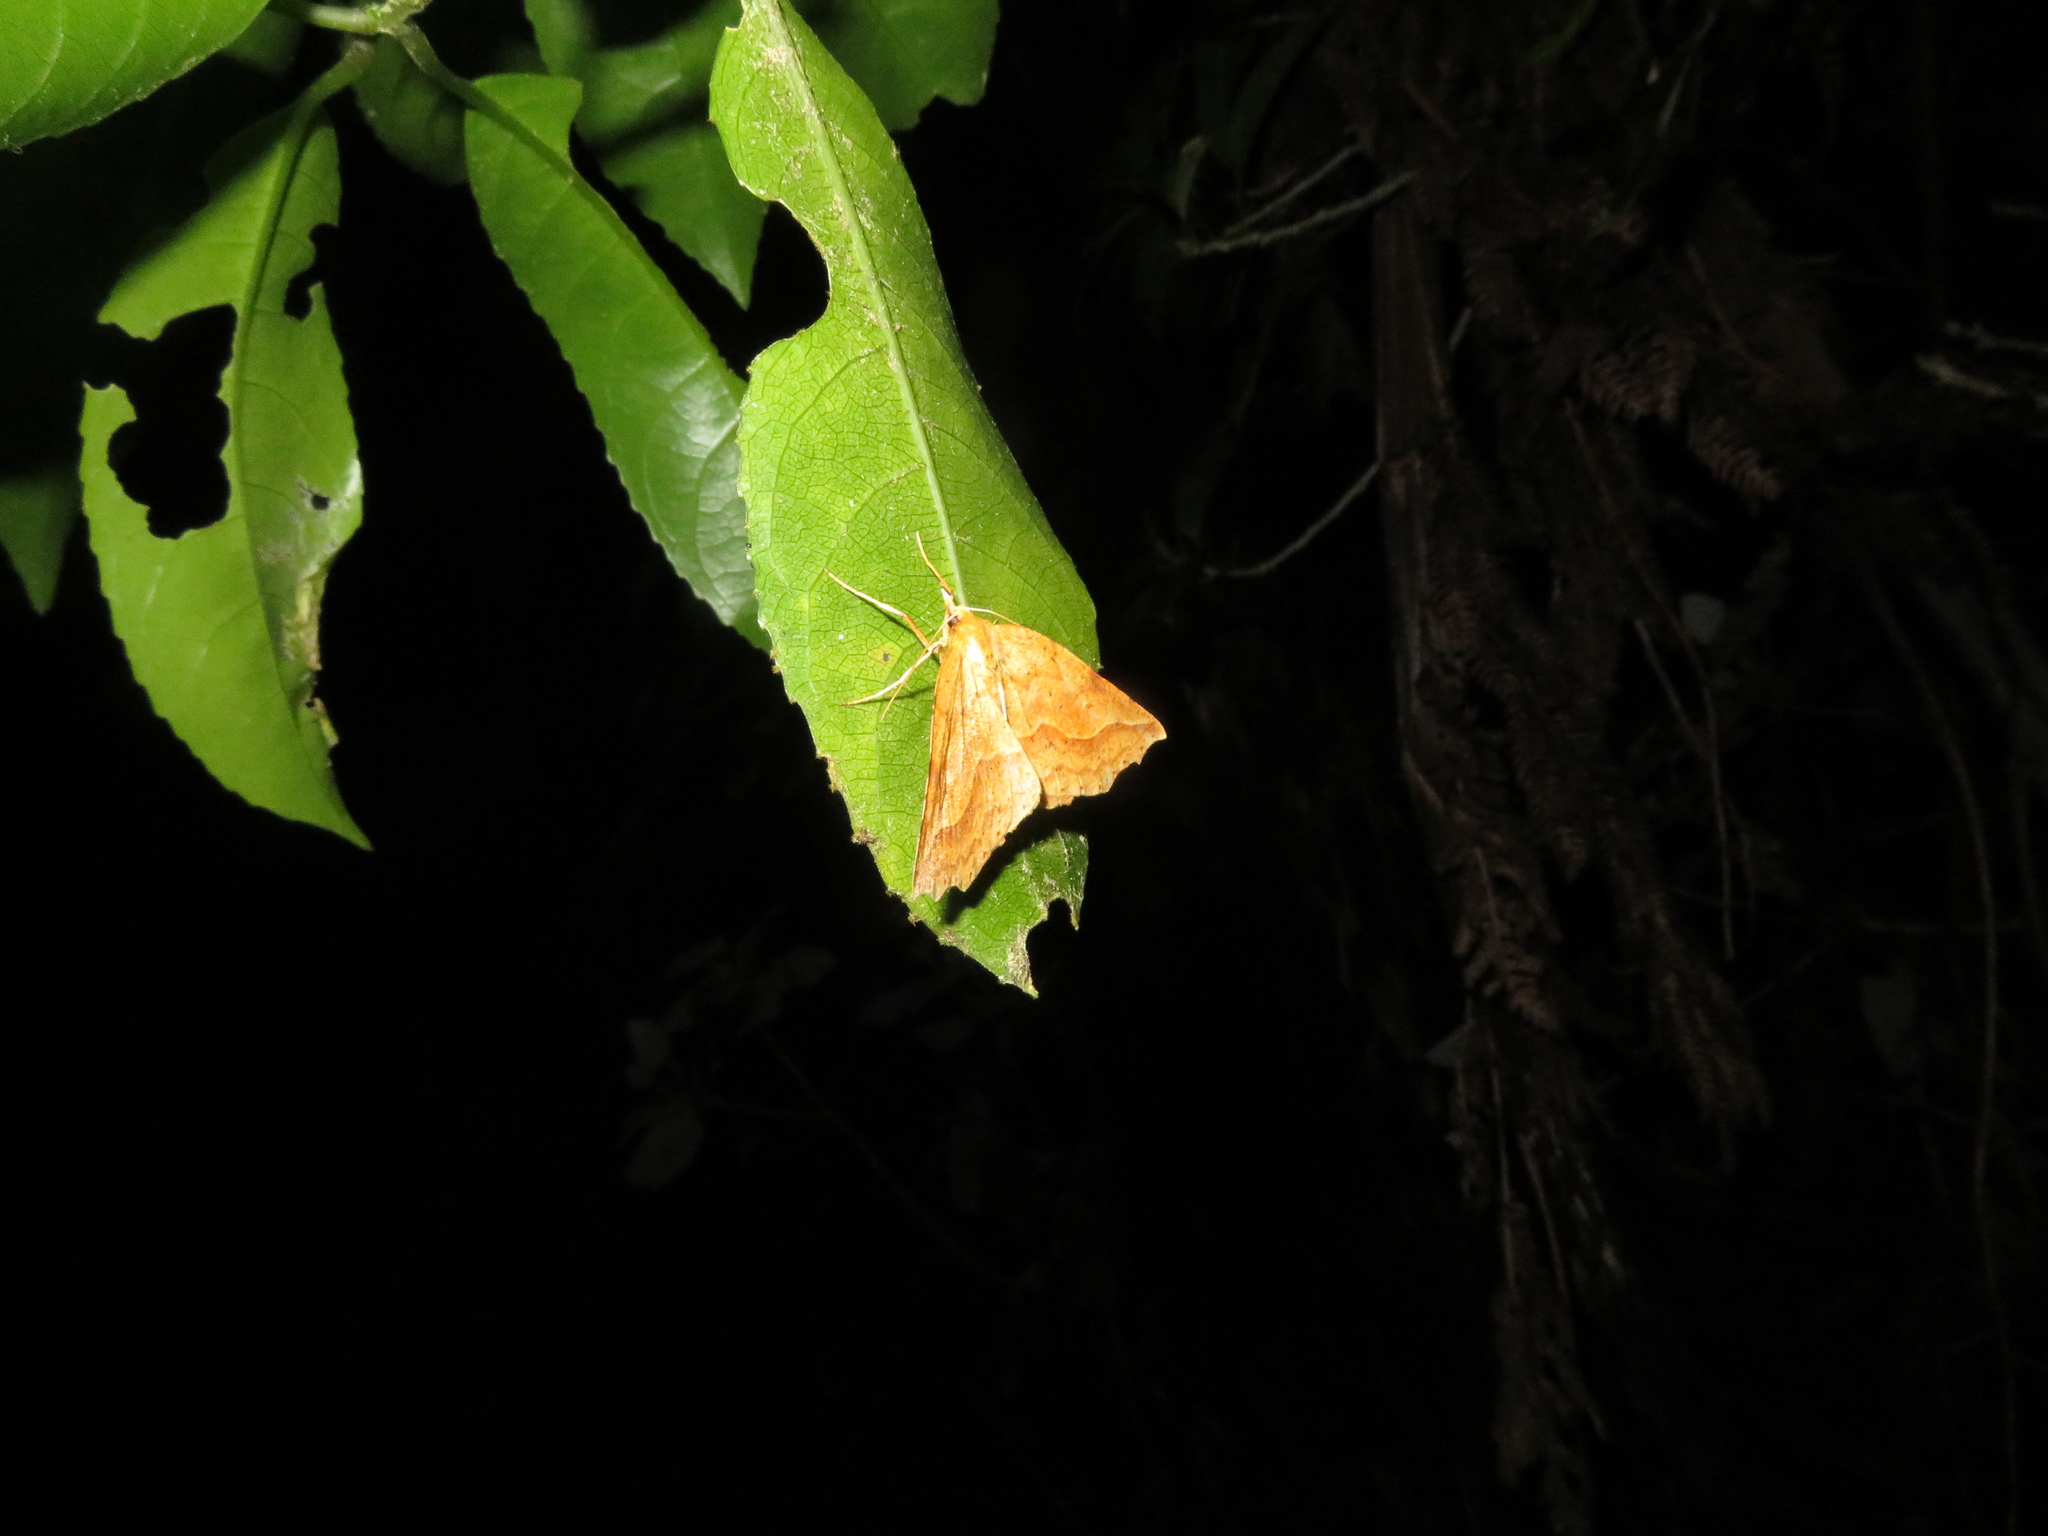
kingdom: Animalia
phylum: Arthropoda
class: Insecta
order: Lepidoptera
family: Geometridae
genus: Ischalis
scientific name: Ischalis variabilis
